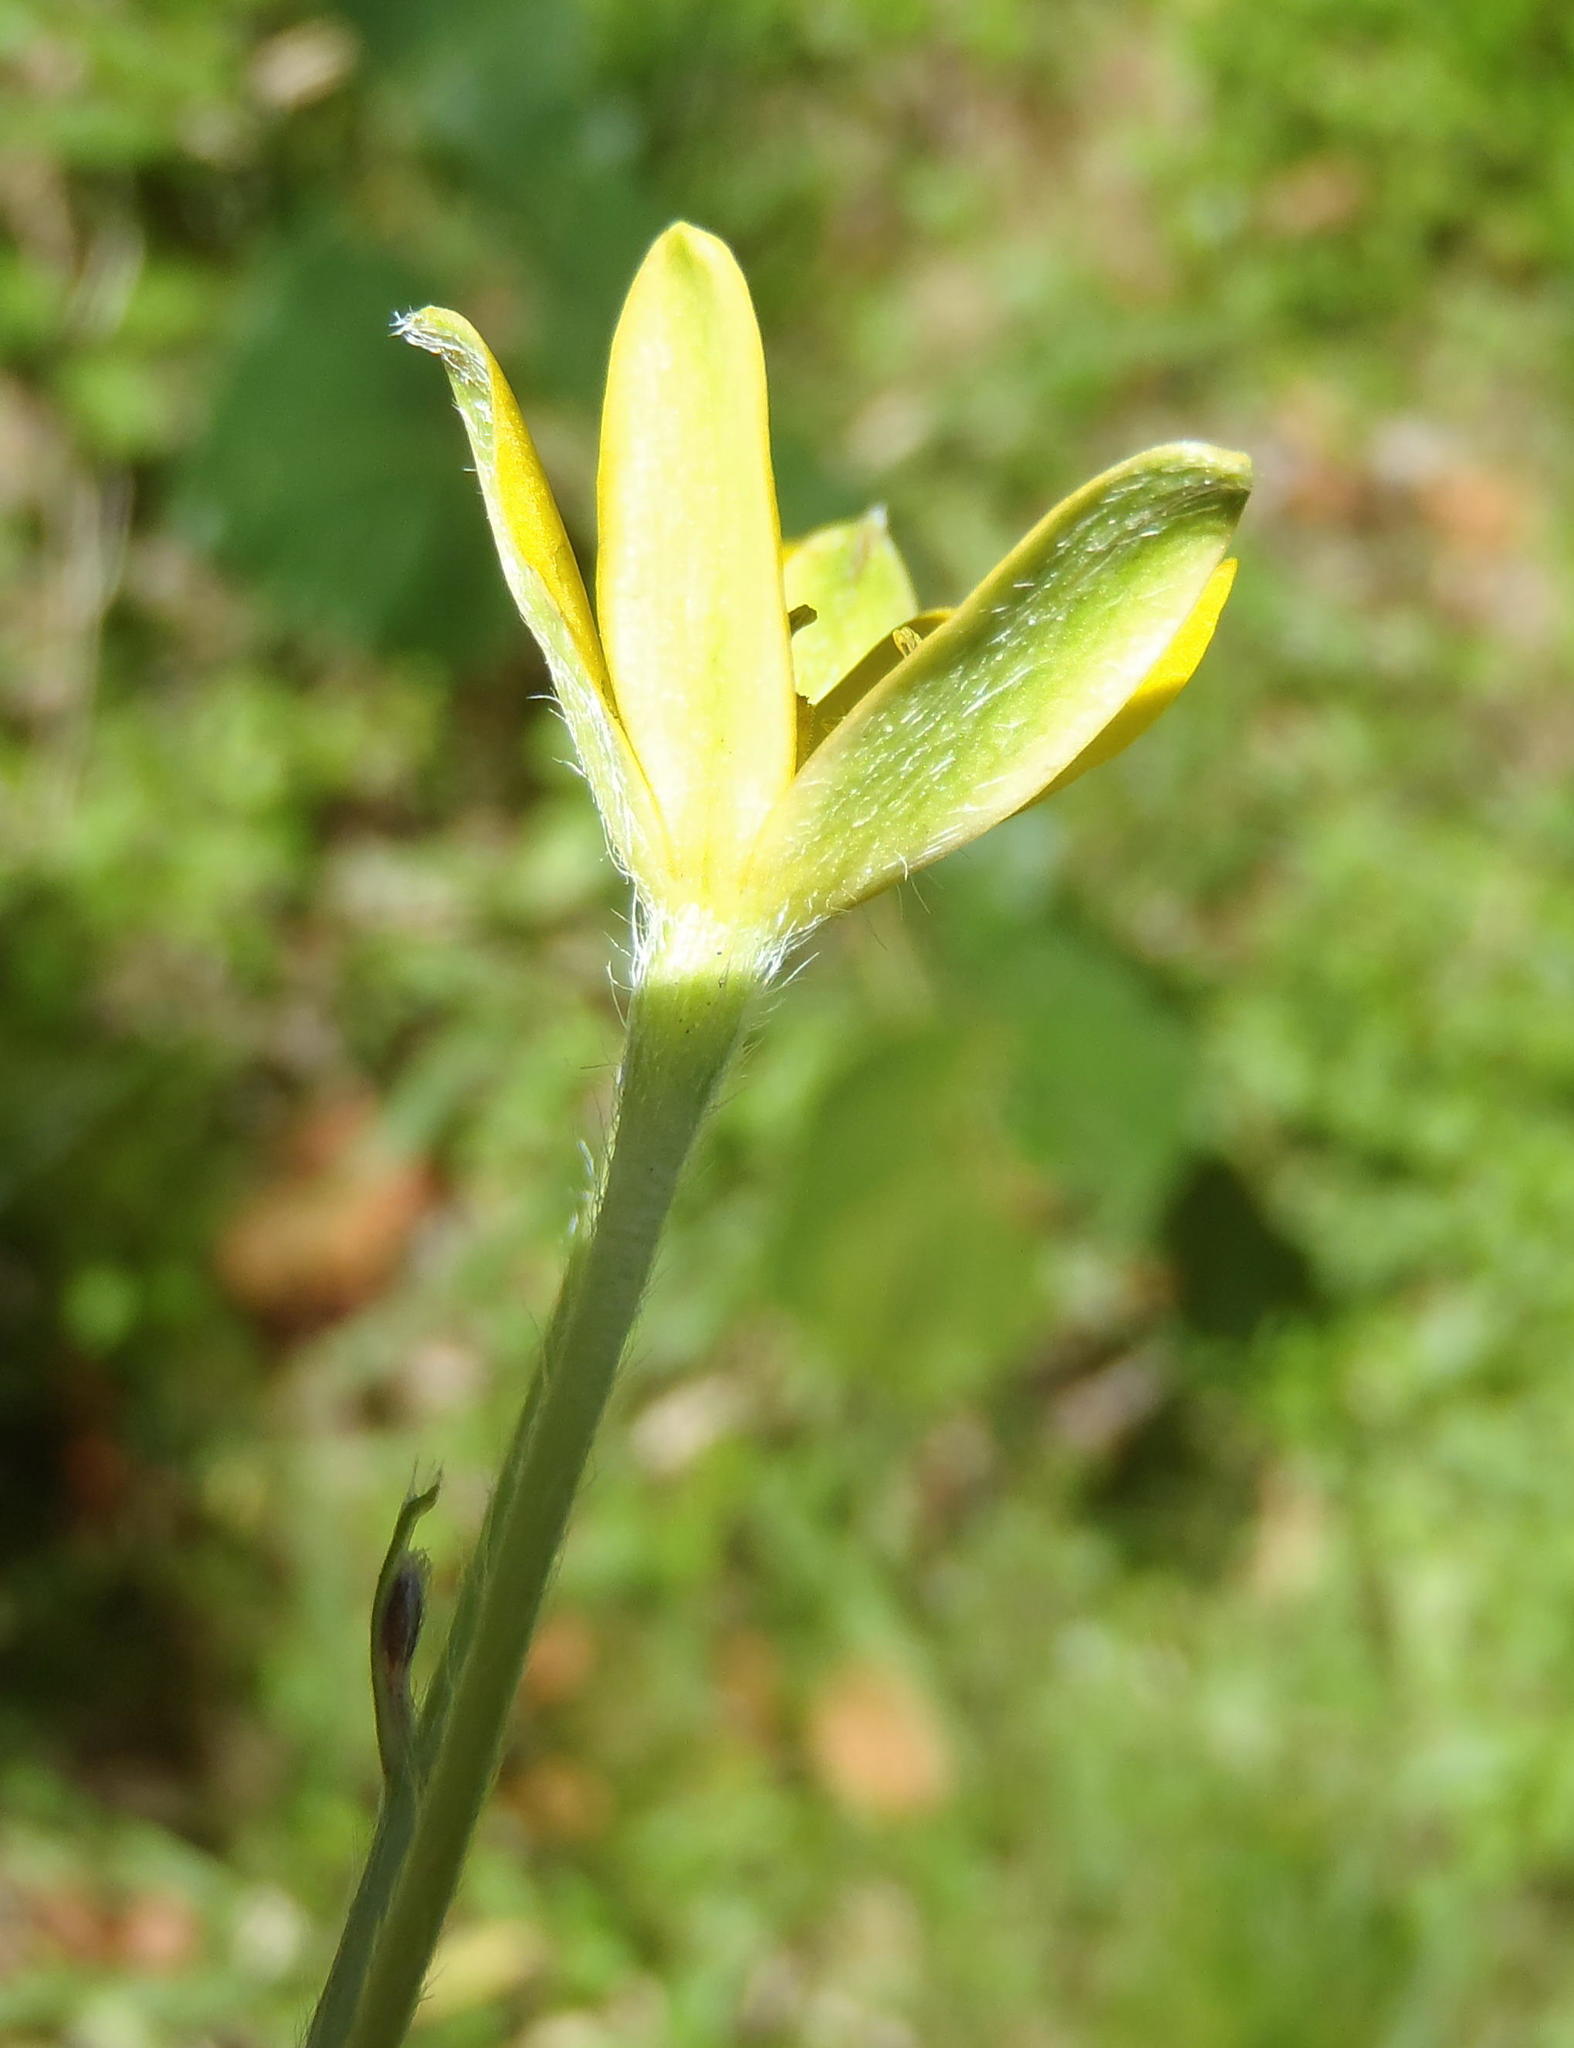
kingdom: Plantae
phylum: Tracheophyta
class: Liliopsida
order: Asparagales
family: Hypoxidaceae
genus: Hypoxis
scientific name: Hypoxis sobolifera
